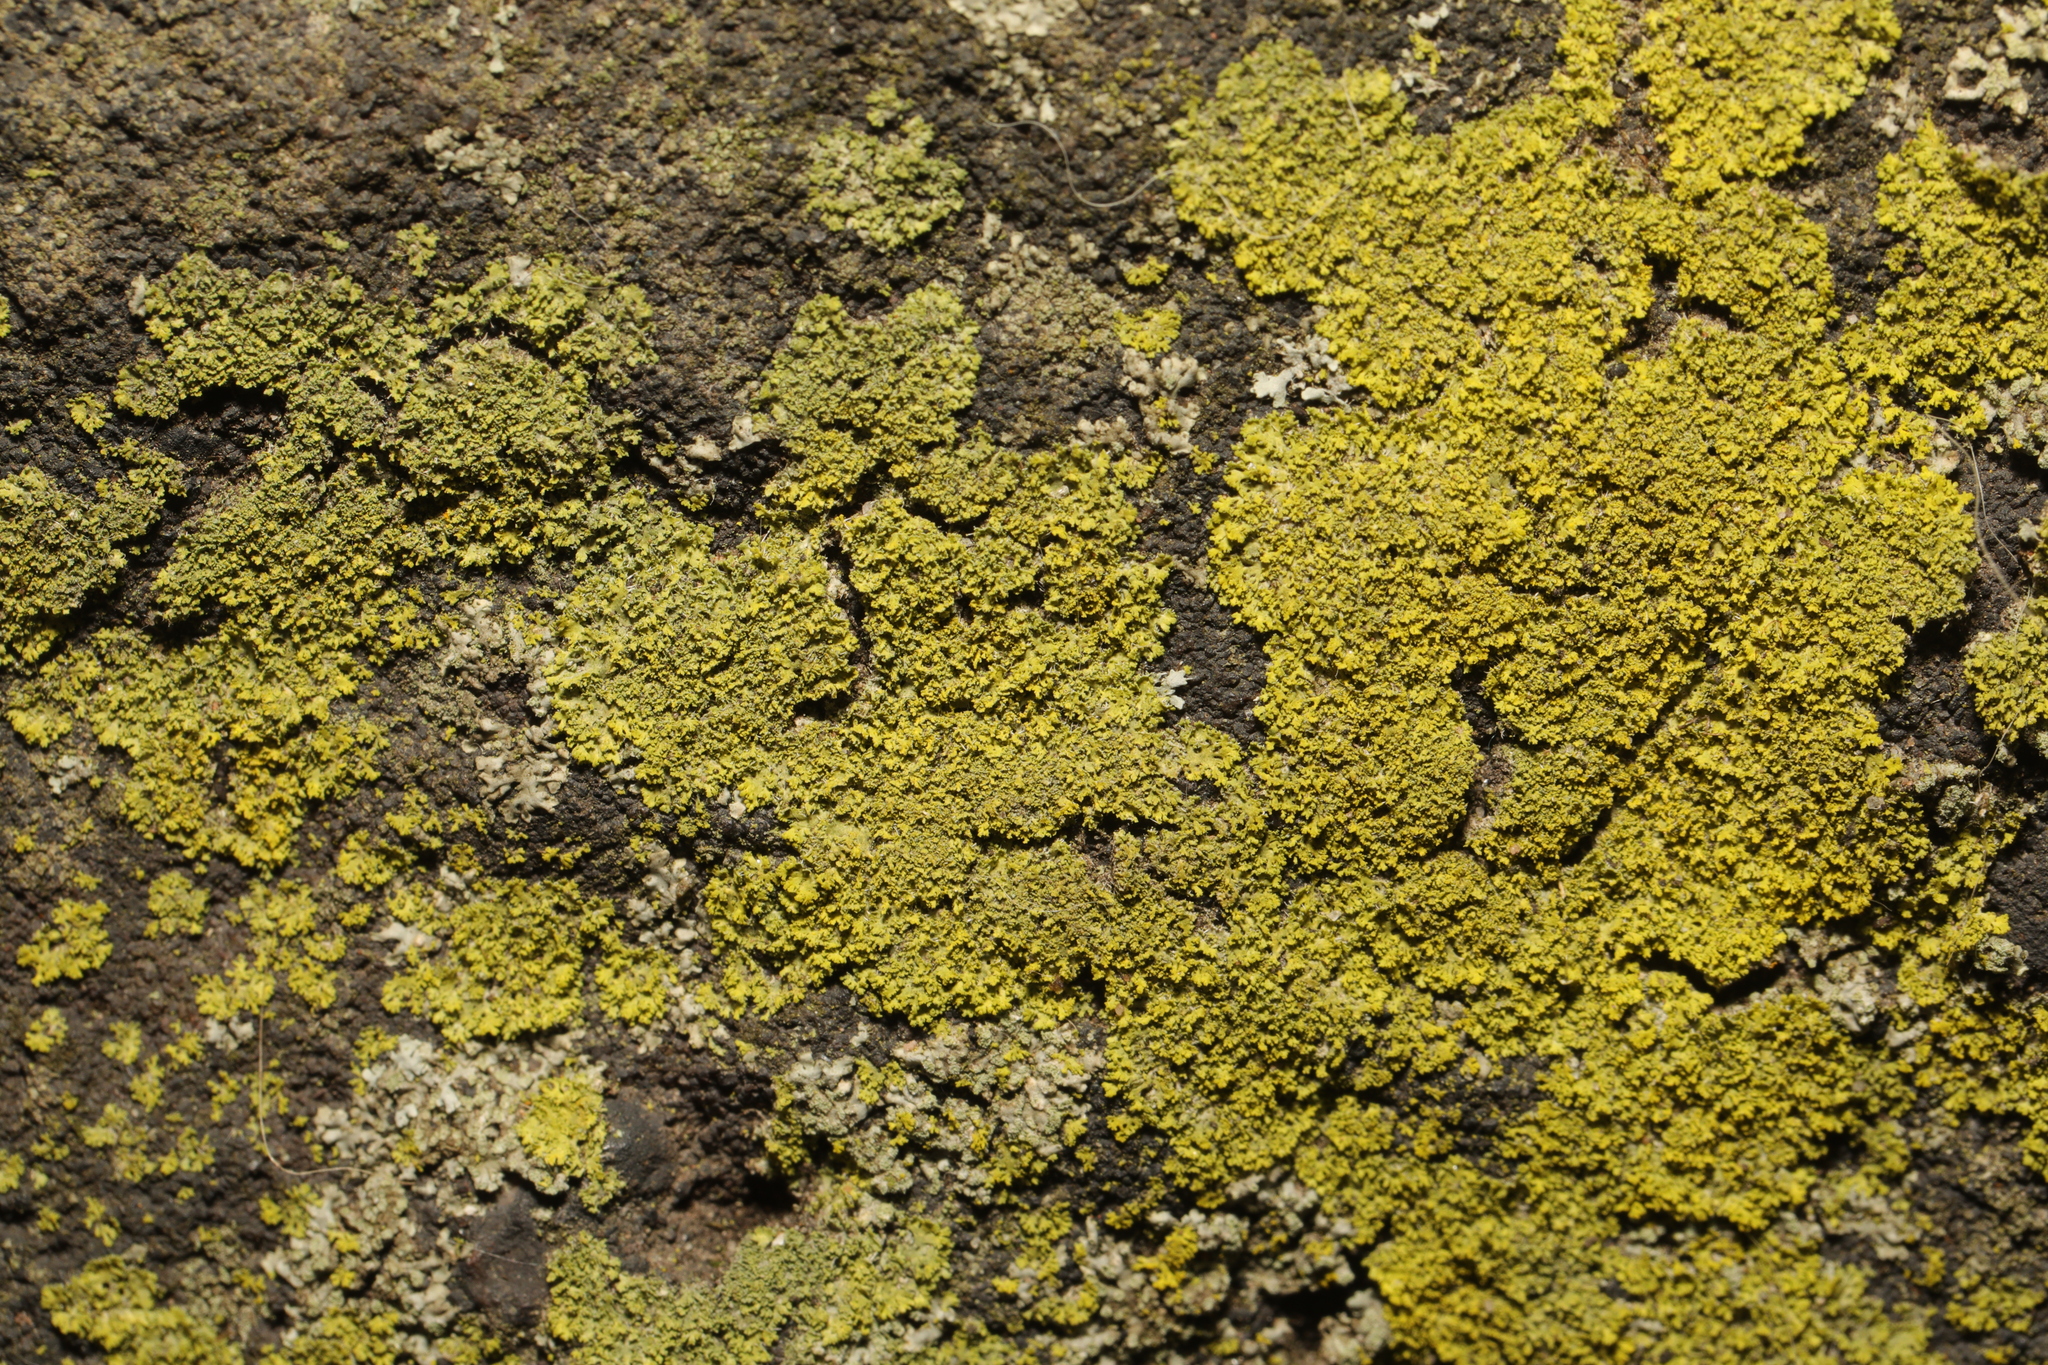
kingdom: Fungi
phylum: Ascomycota
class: Candelariomycetes
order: Candelariales
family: Candelariaceae
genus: Candelaria
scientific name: Candelaria concolor
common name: Candleflame lichen
